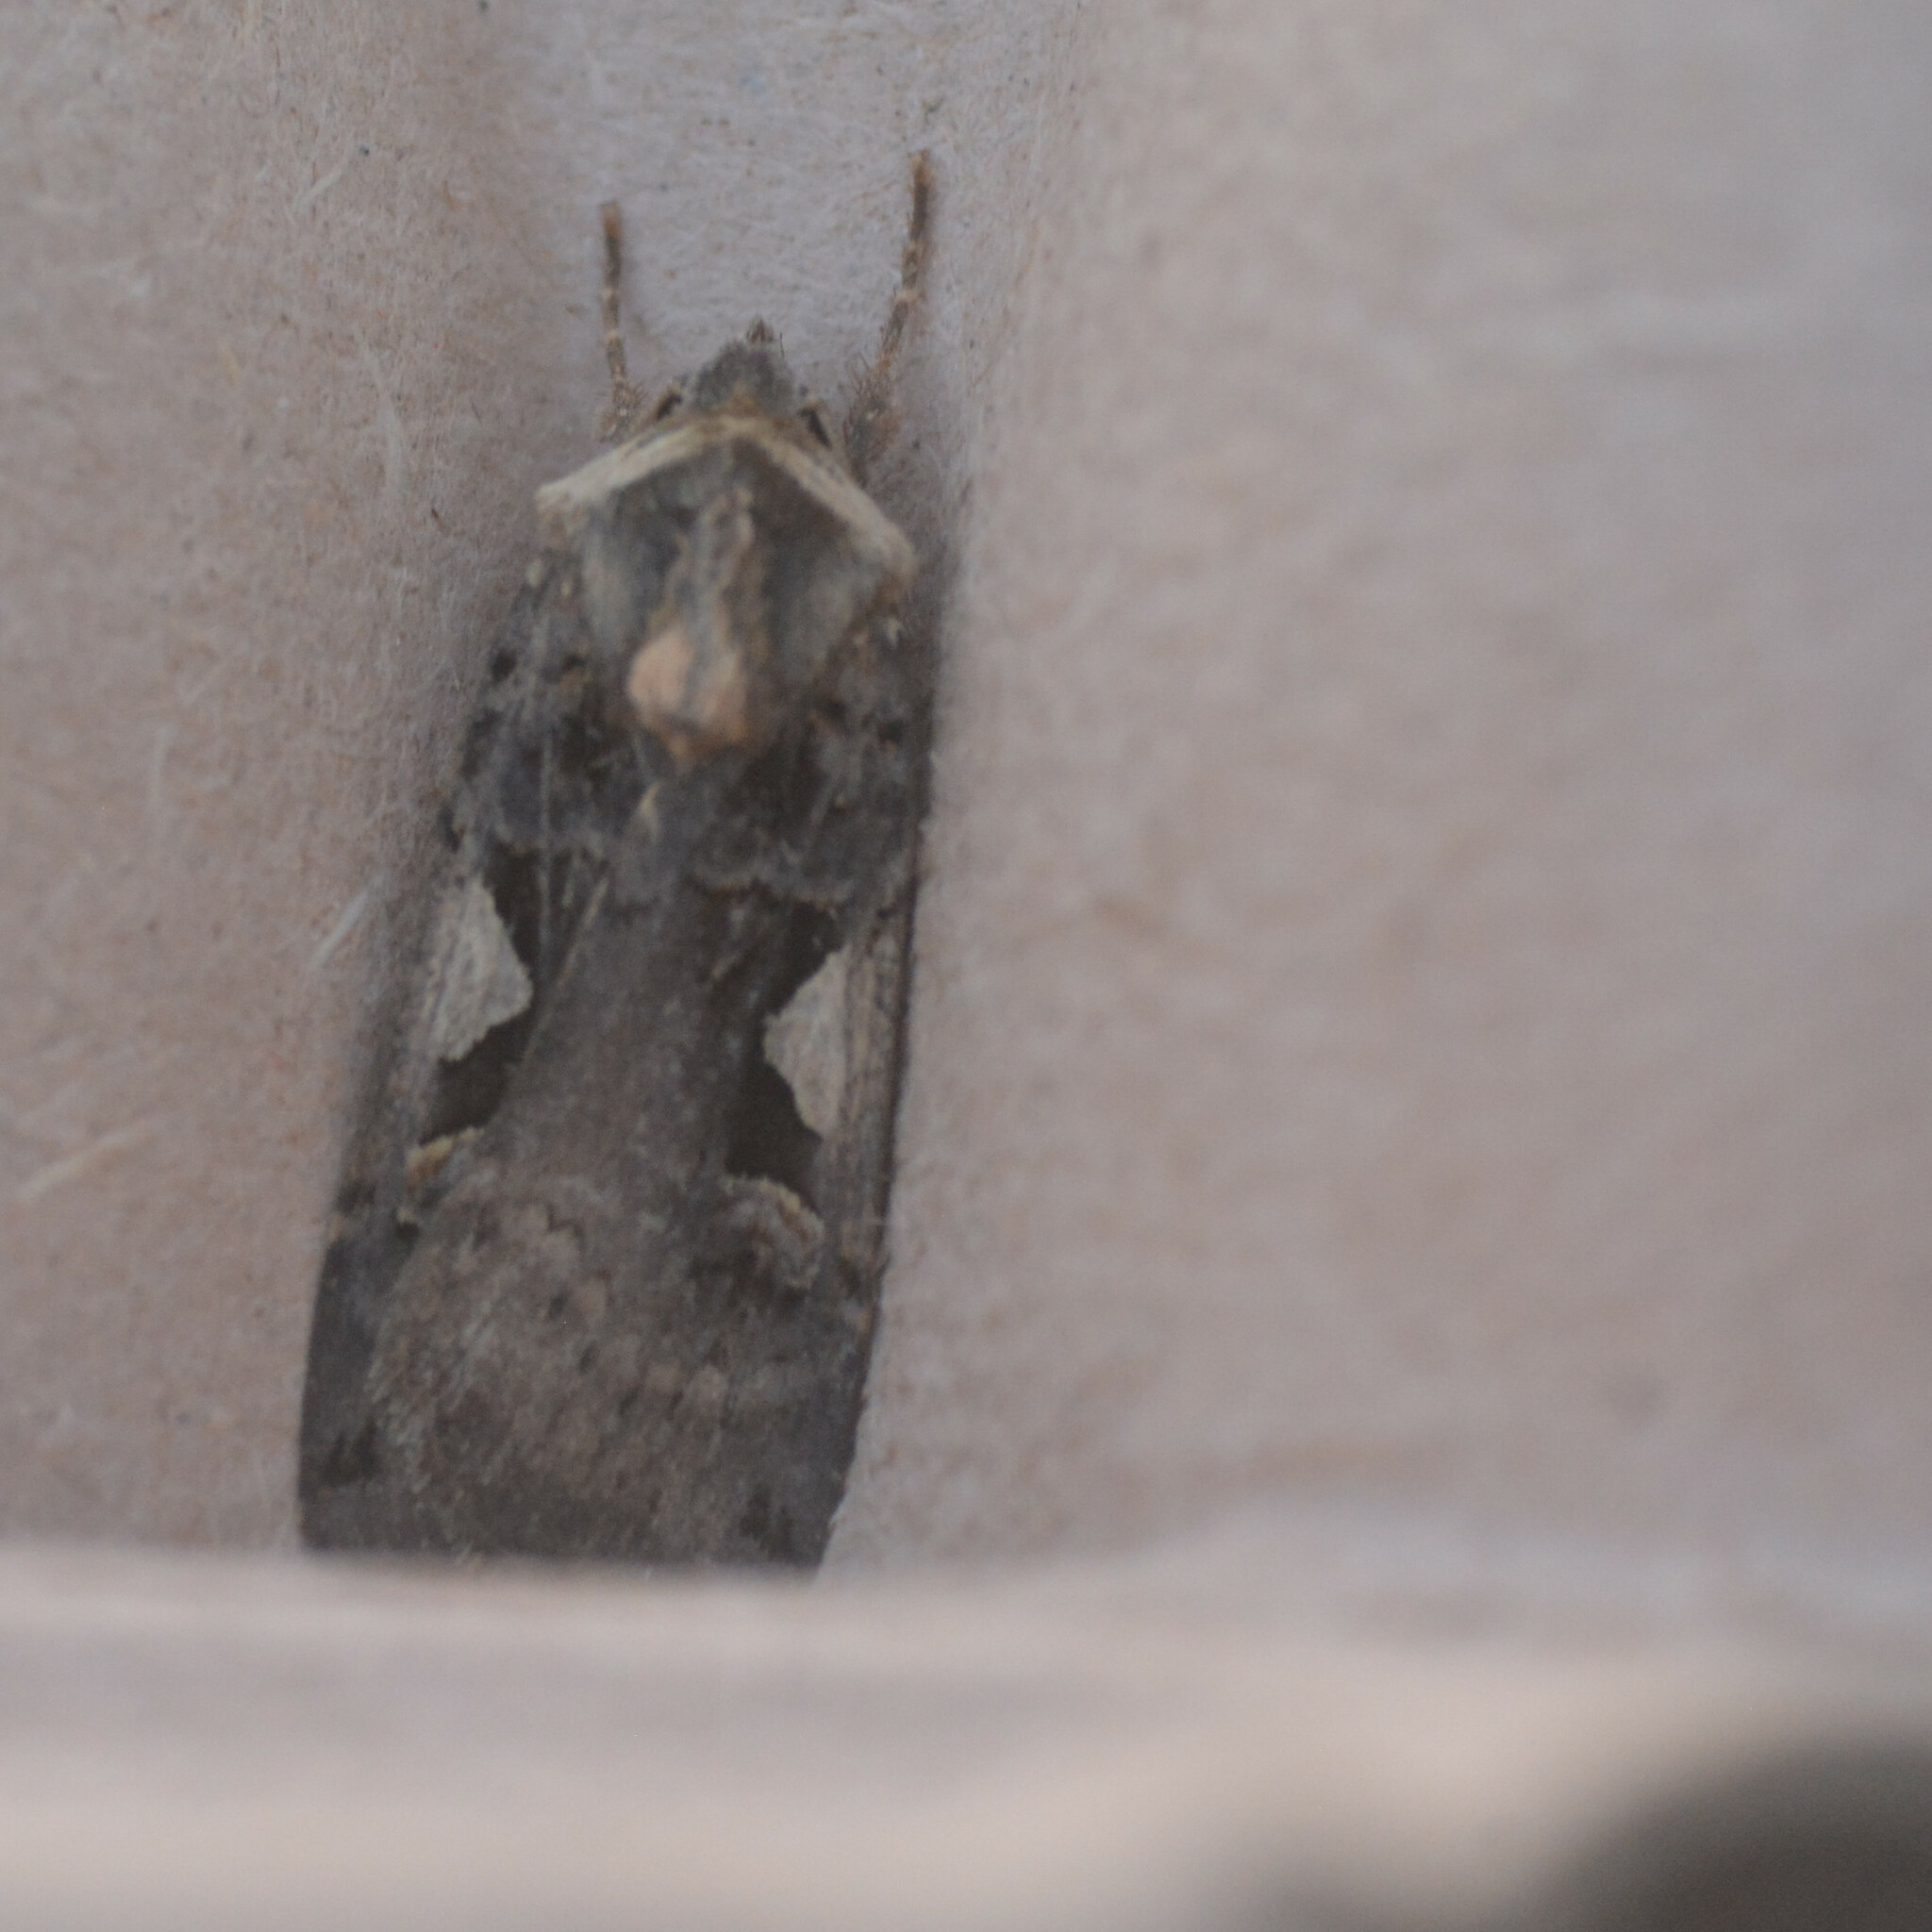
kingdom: Animalia
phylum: Arthropoda
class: Insecta
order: Lepidoptera
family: Noctuidae
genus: Xestia
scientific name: Xestia c-nigrum
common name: Setaceous hebrew character
